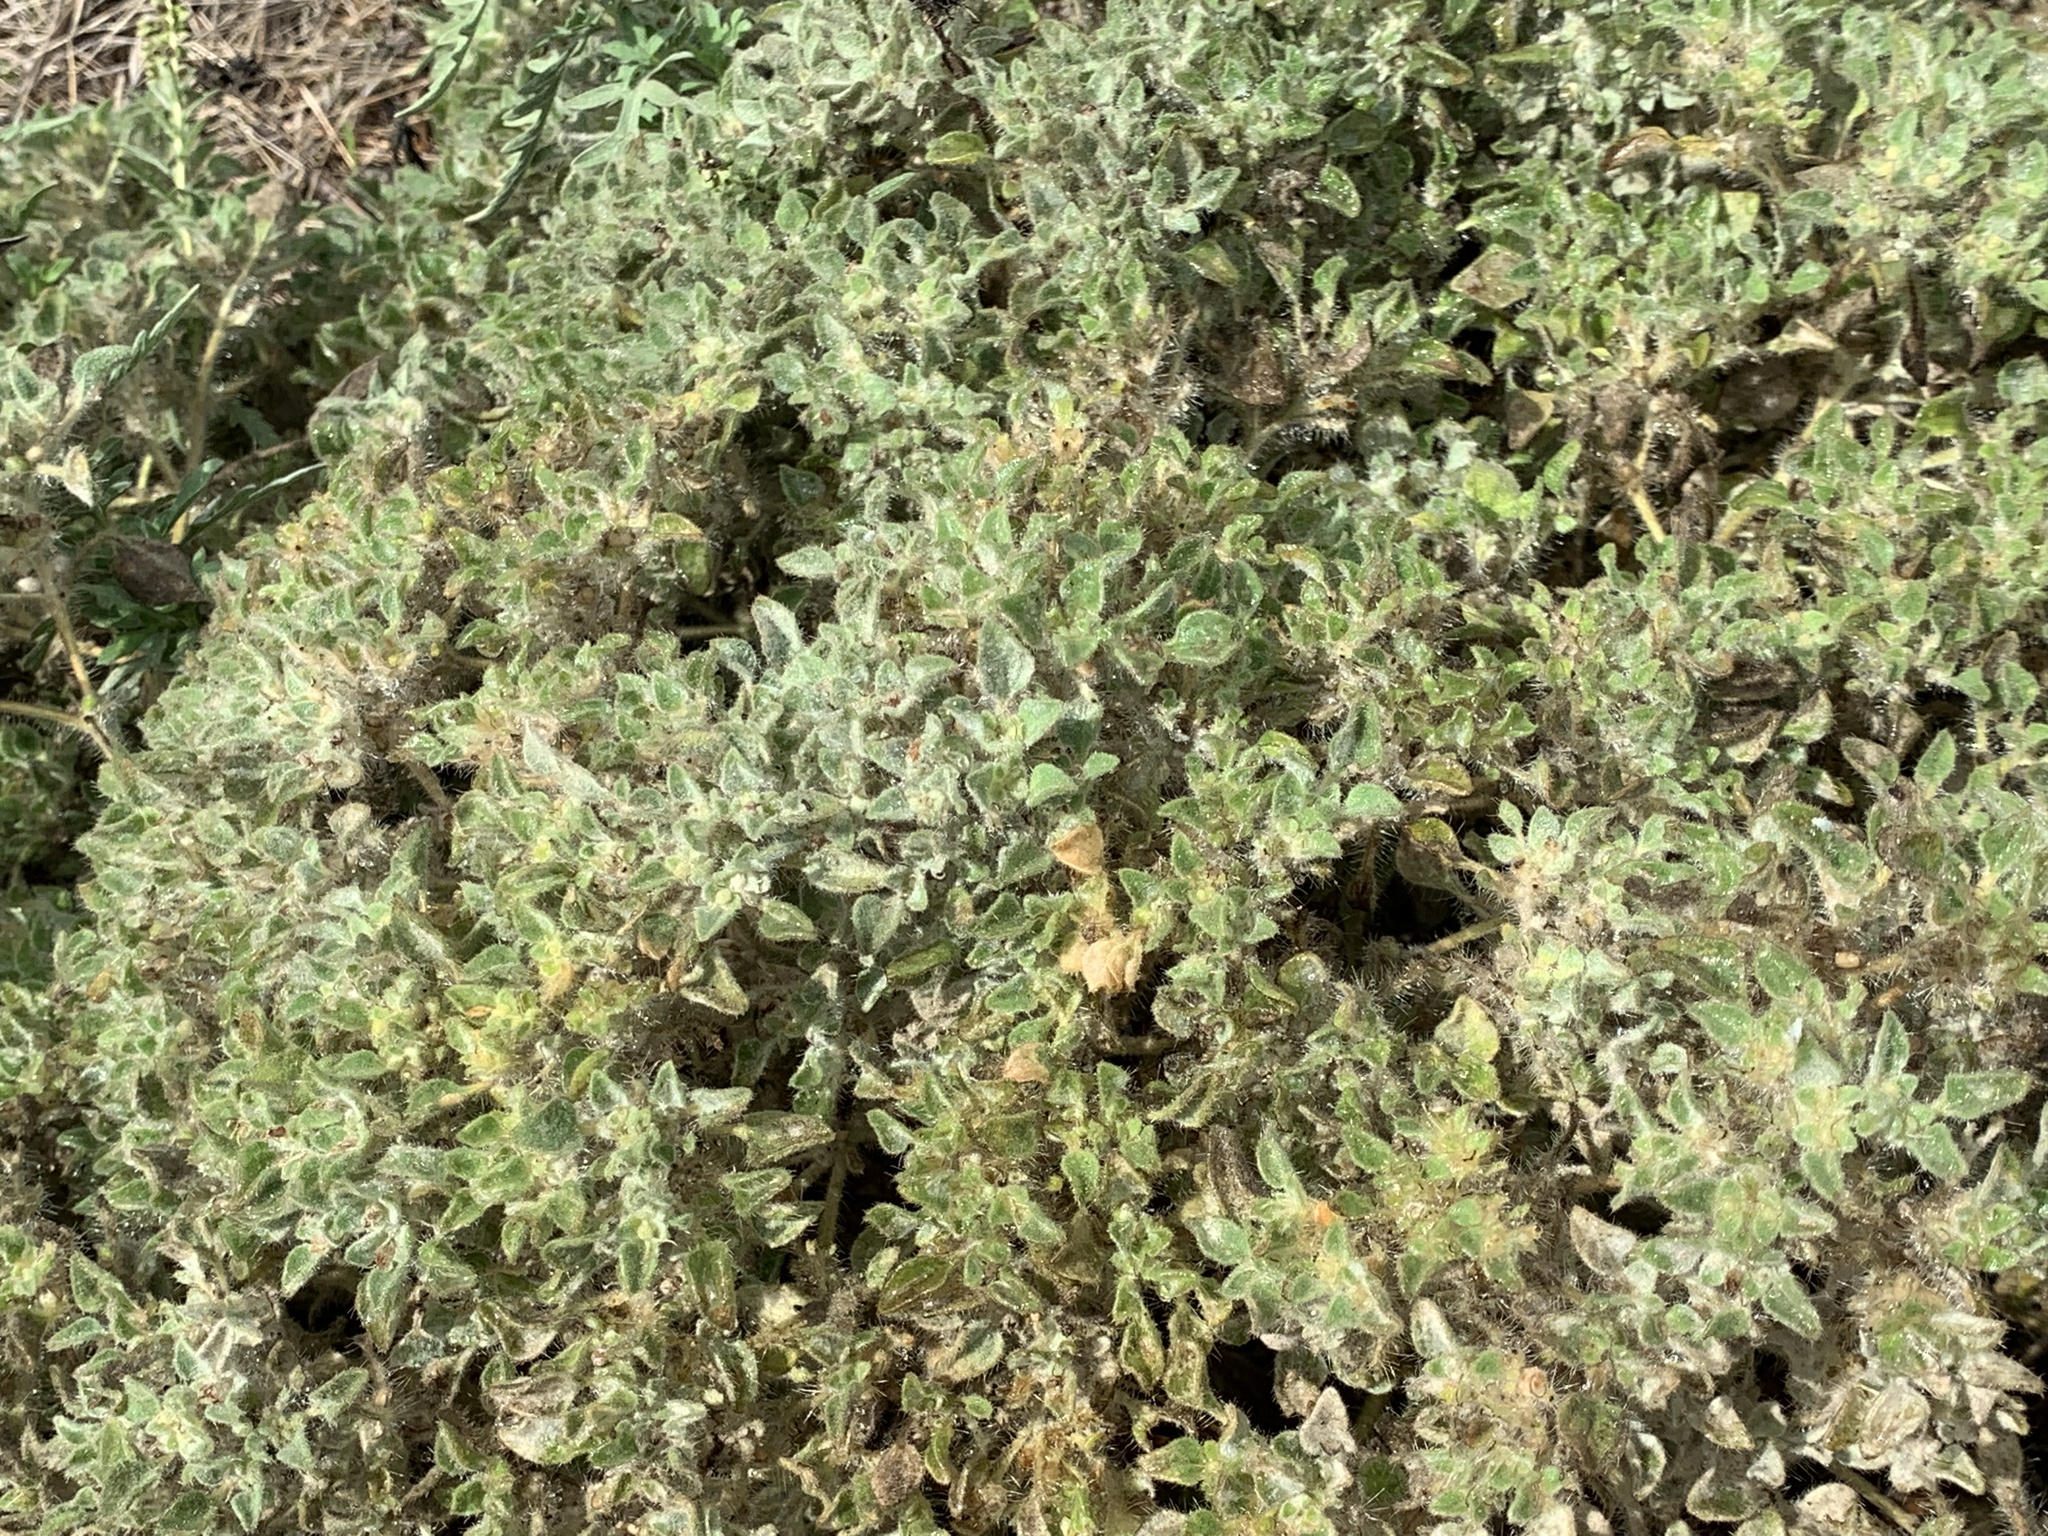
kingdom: Plantae
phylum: Tracheophyta
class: Magnoliopsida
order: Malpighiales
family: Euphorbiaceae
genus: Croton
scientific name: Croton setiger
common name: Dove weed
